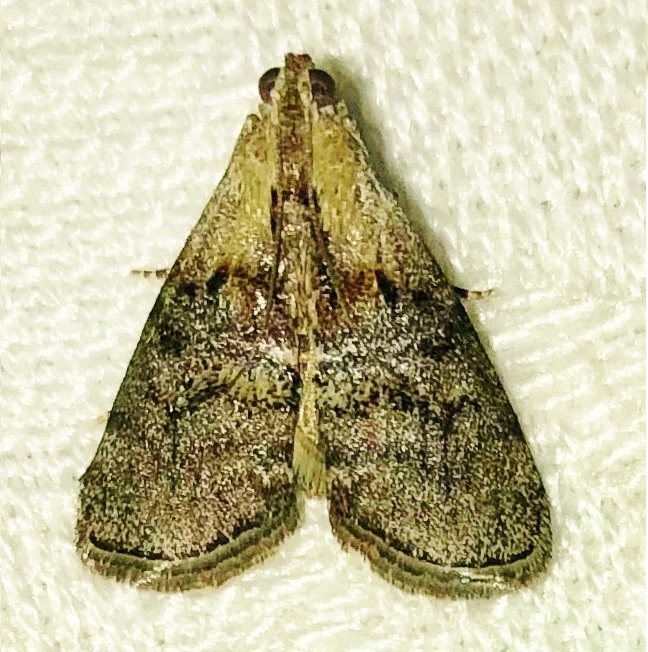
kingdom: Animalia
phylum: Arthropoda
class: Insecta
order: Lepidoptera
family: Pyralidae
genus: Pococera
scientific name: Pococera expandens
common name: Striped oak webworm moth
